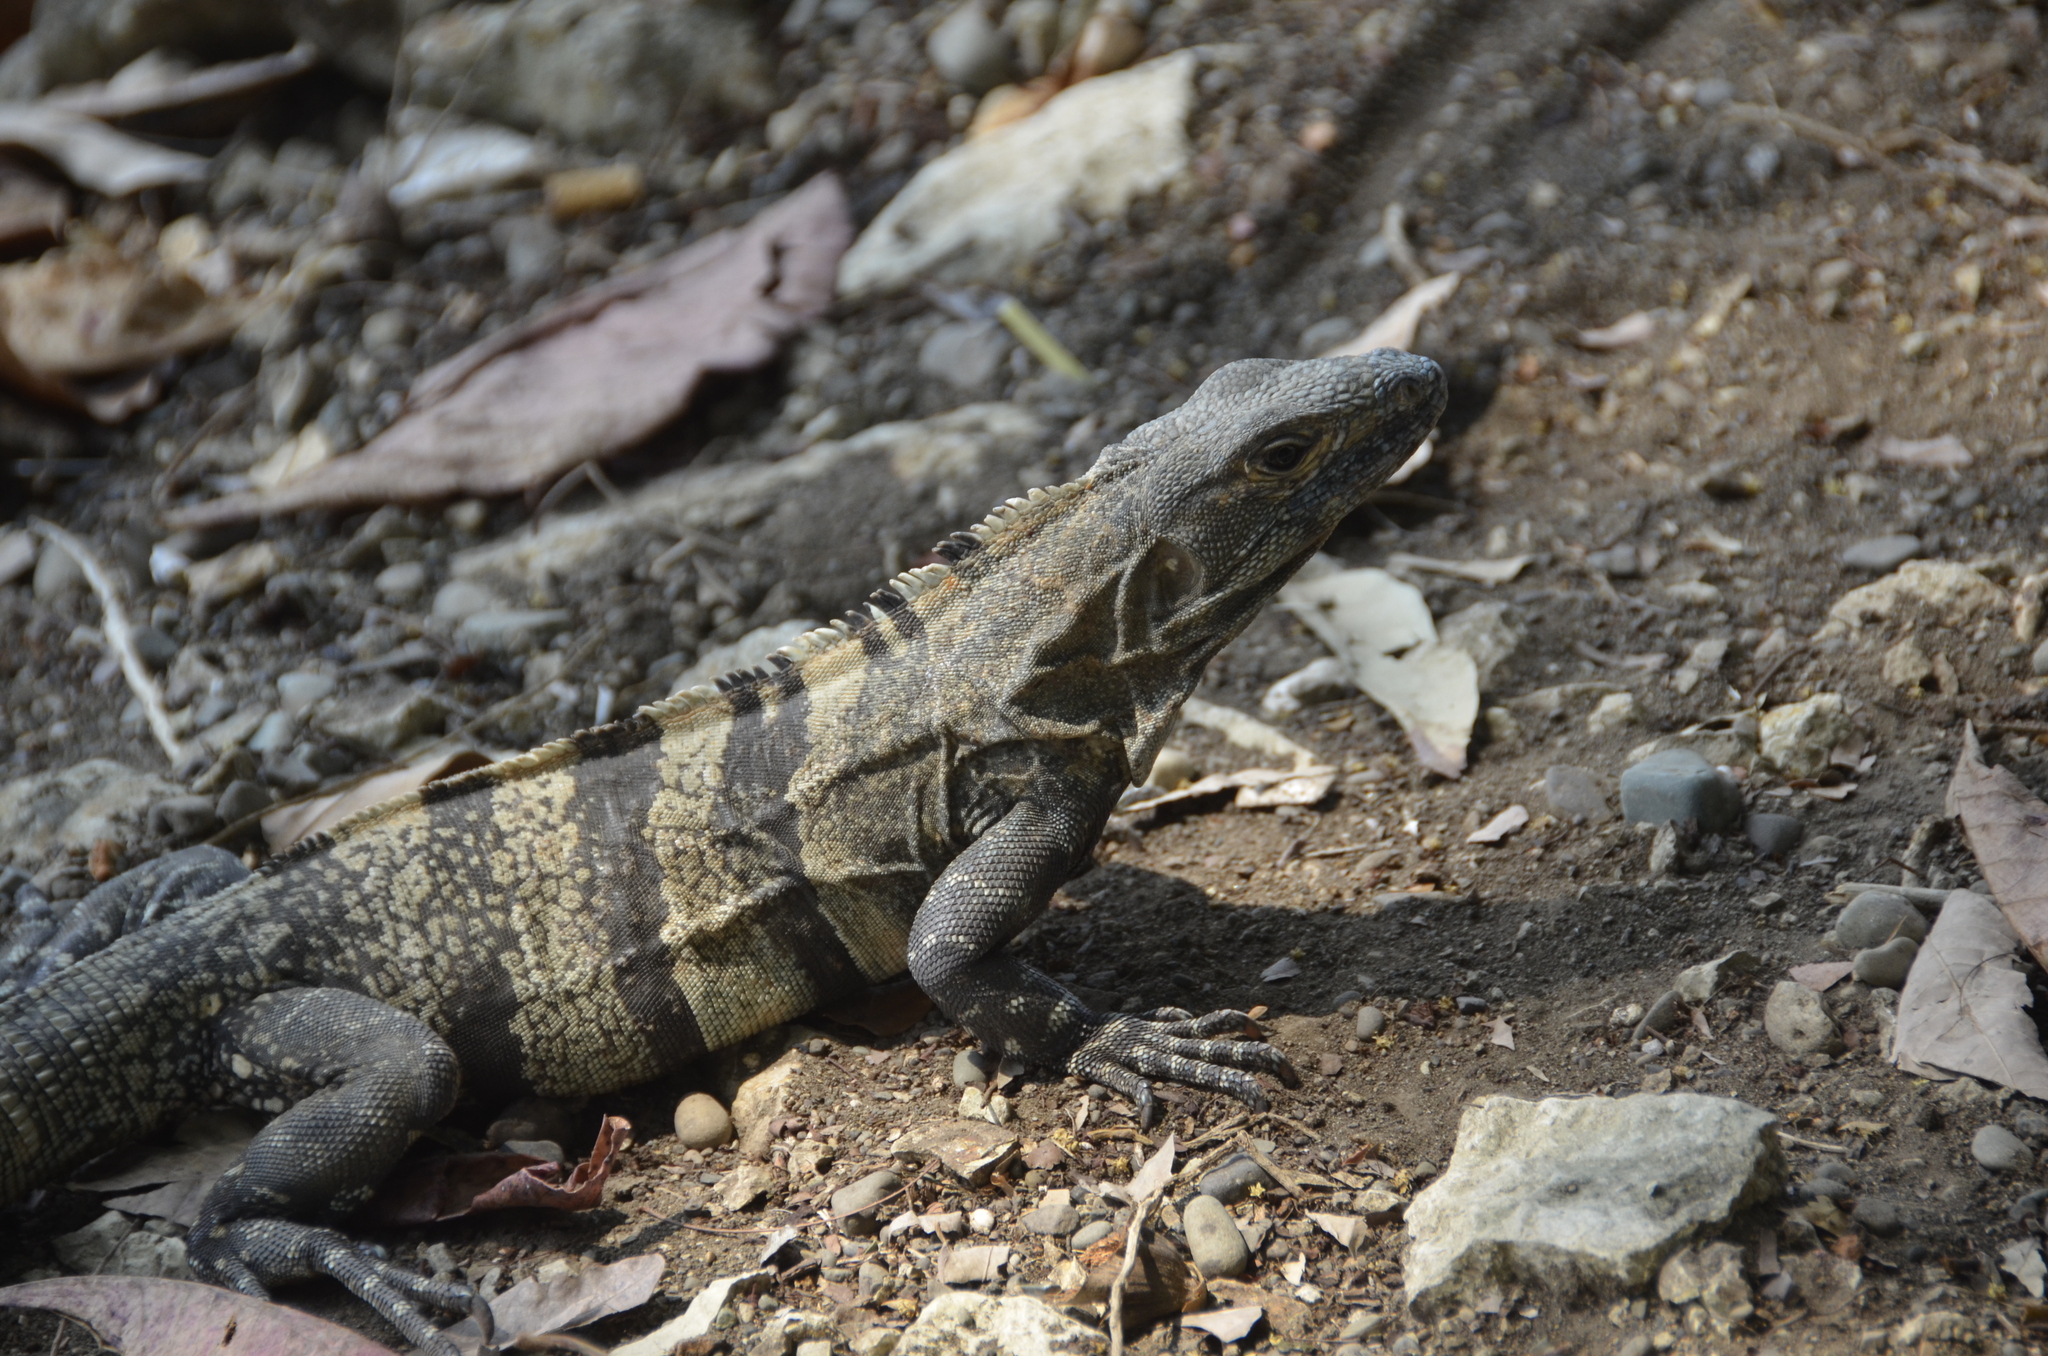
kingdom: Animalia
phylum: Chordata
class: Squamata
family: Iguanidae
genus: Ctenosaura
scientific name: Ctenosaura similis
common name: Black spiny-tailed iguana
